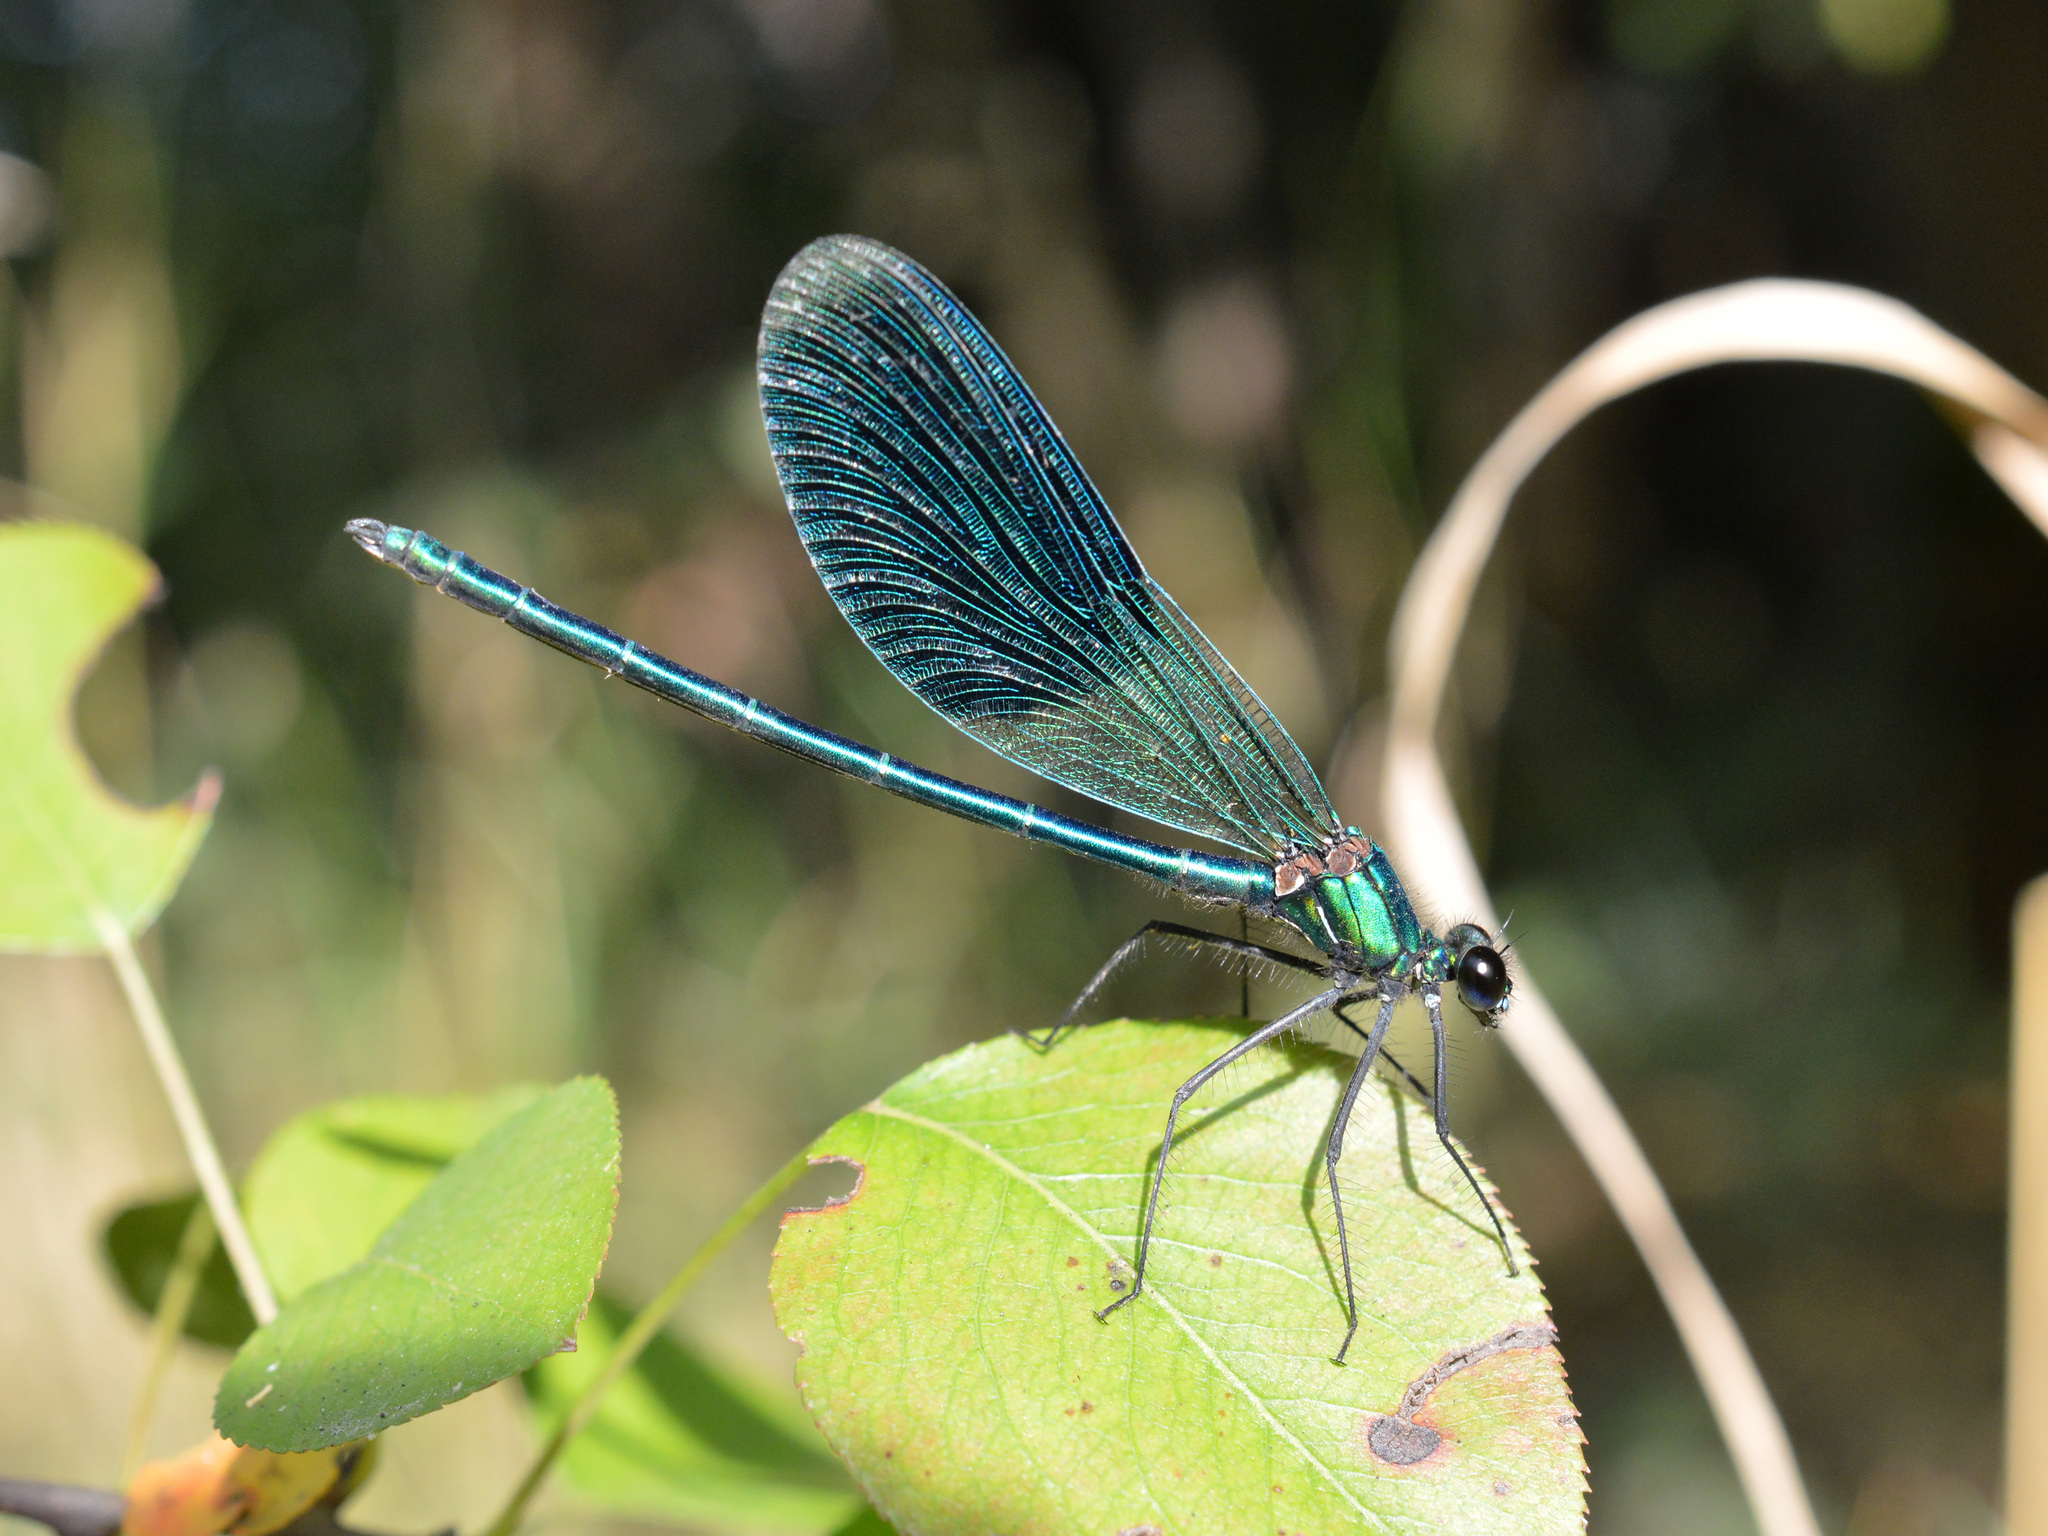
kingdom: Animalia
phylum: Arthropoda
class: Insecta
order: Odonata
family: Calopterygidae
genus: Calopteryx
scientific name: Calopteryx splendens
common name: Banded demoiselle
